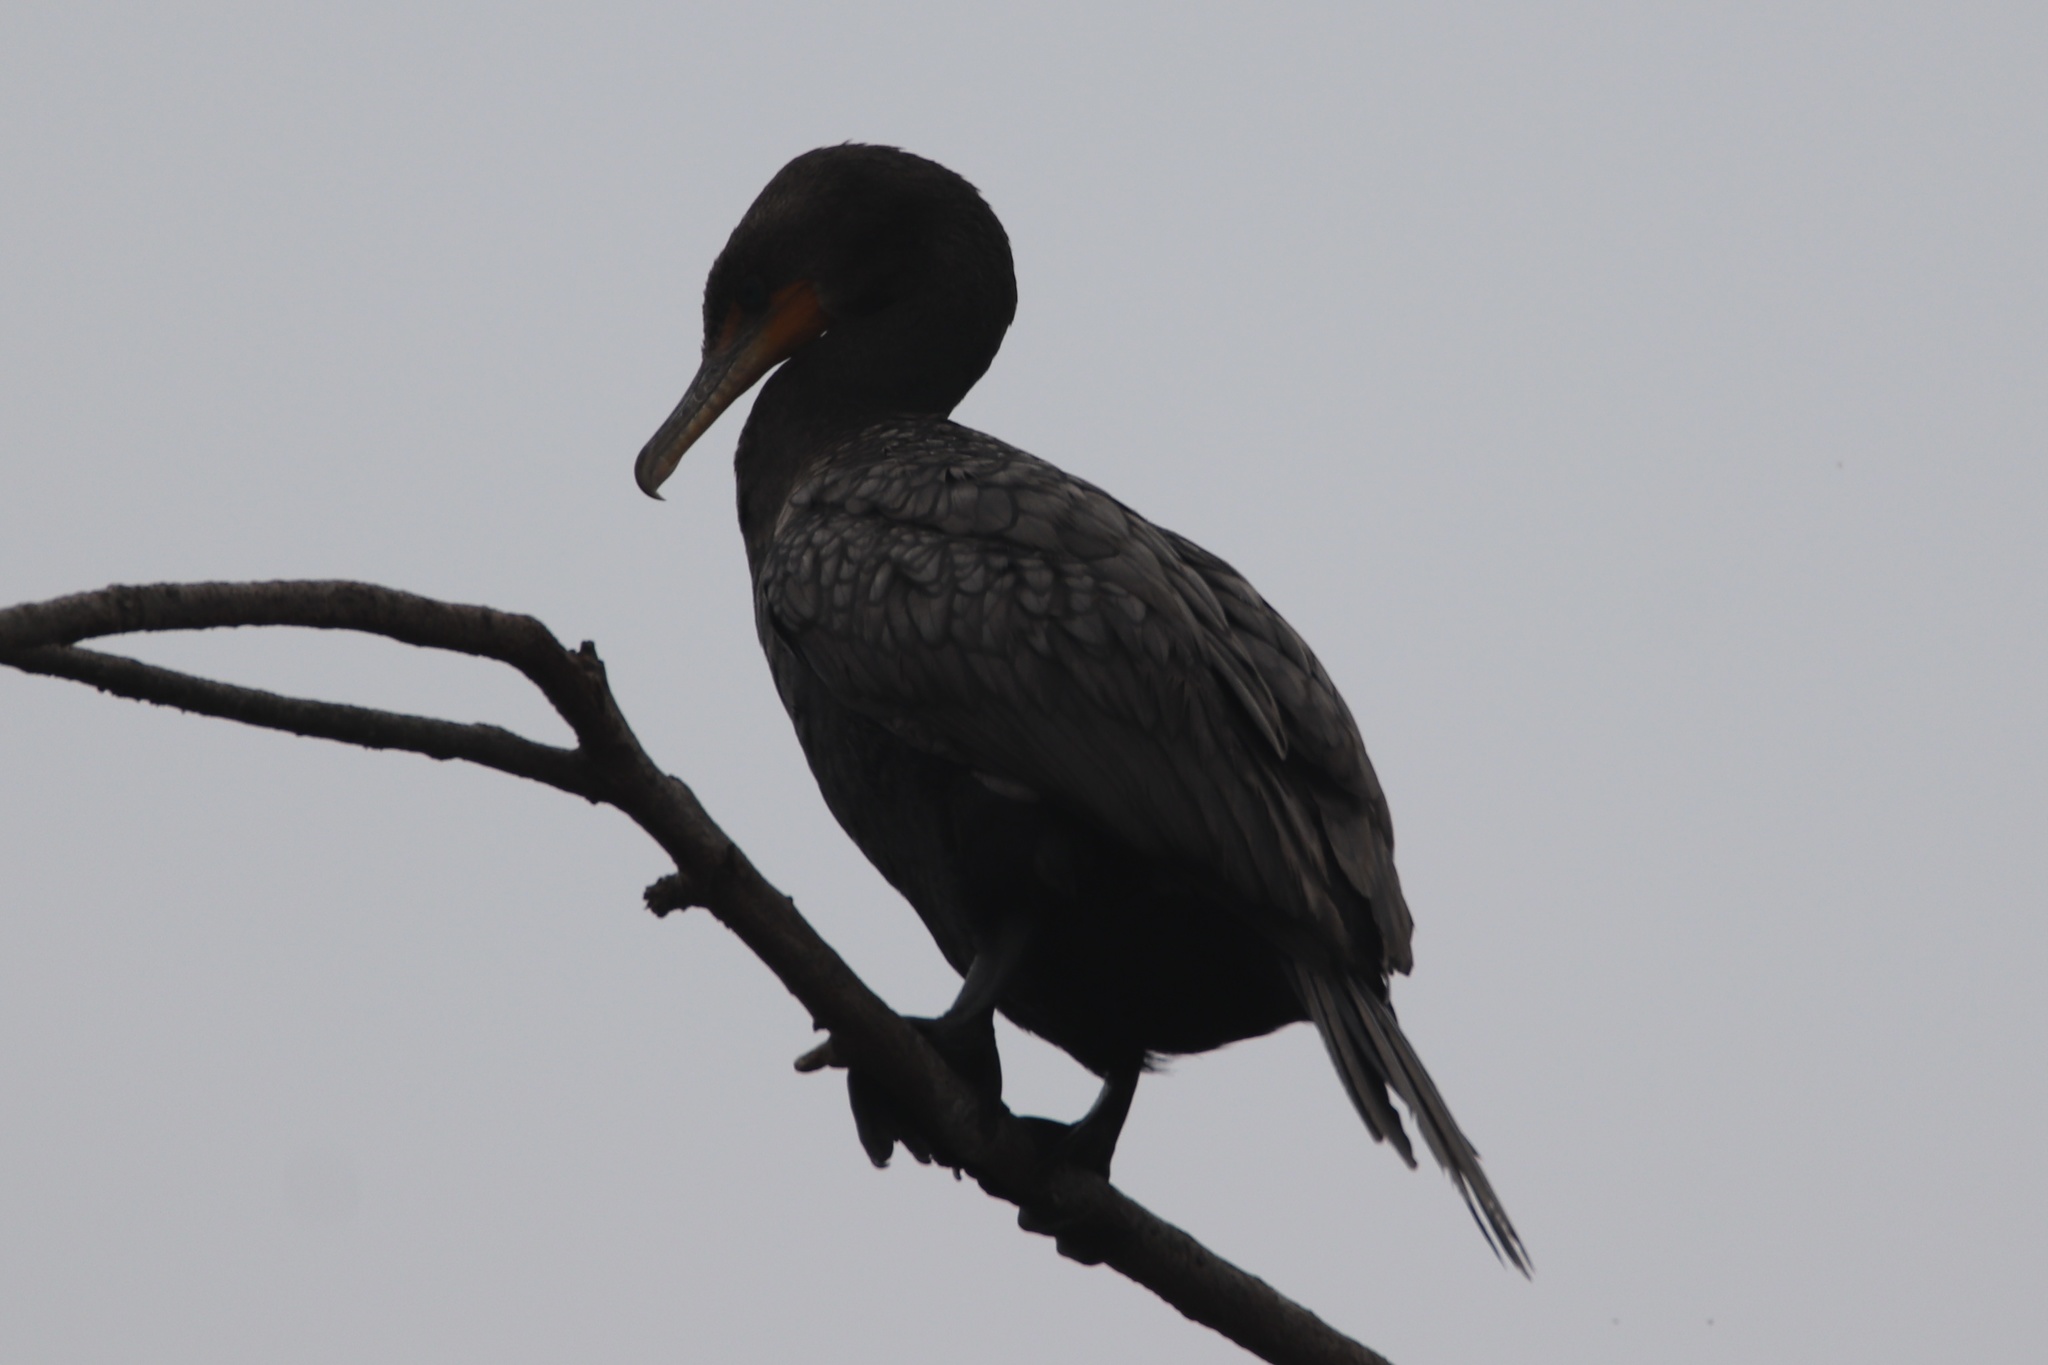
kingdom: Animalia
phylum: Chordata
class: Aves
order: Suliformes
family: Phalacrocoracidae
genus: Phalacrocorax
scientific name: Phalacrocorax auritus
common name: Double-crested cormorant
